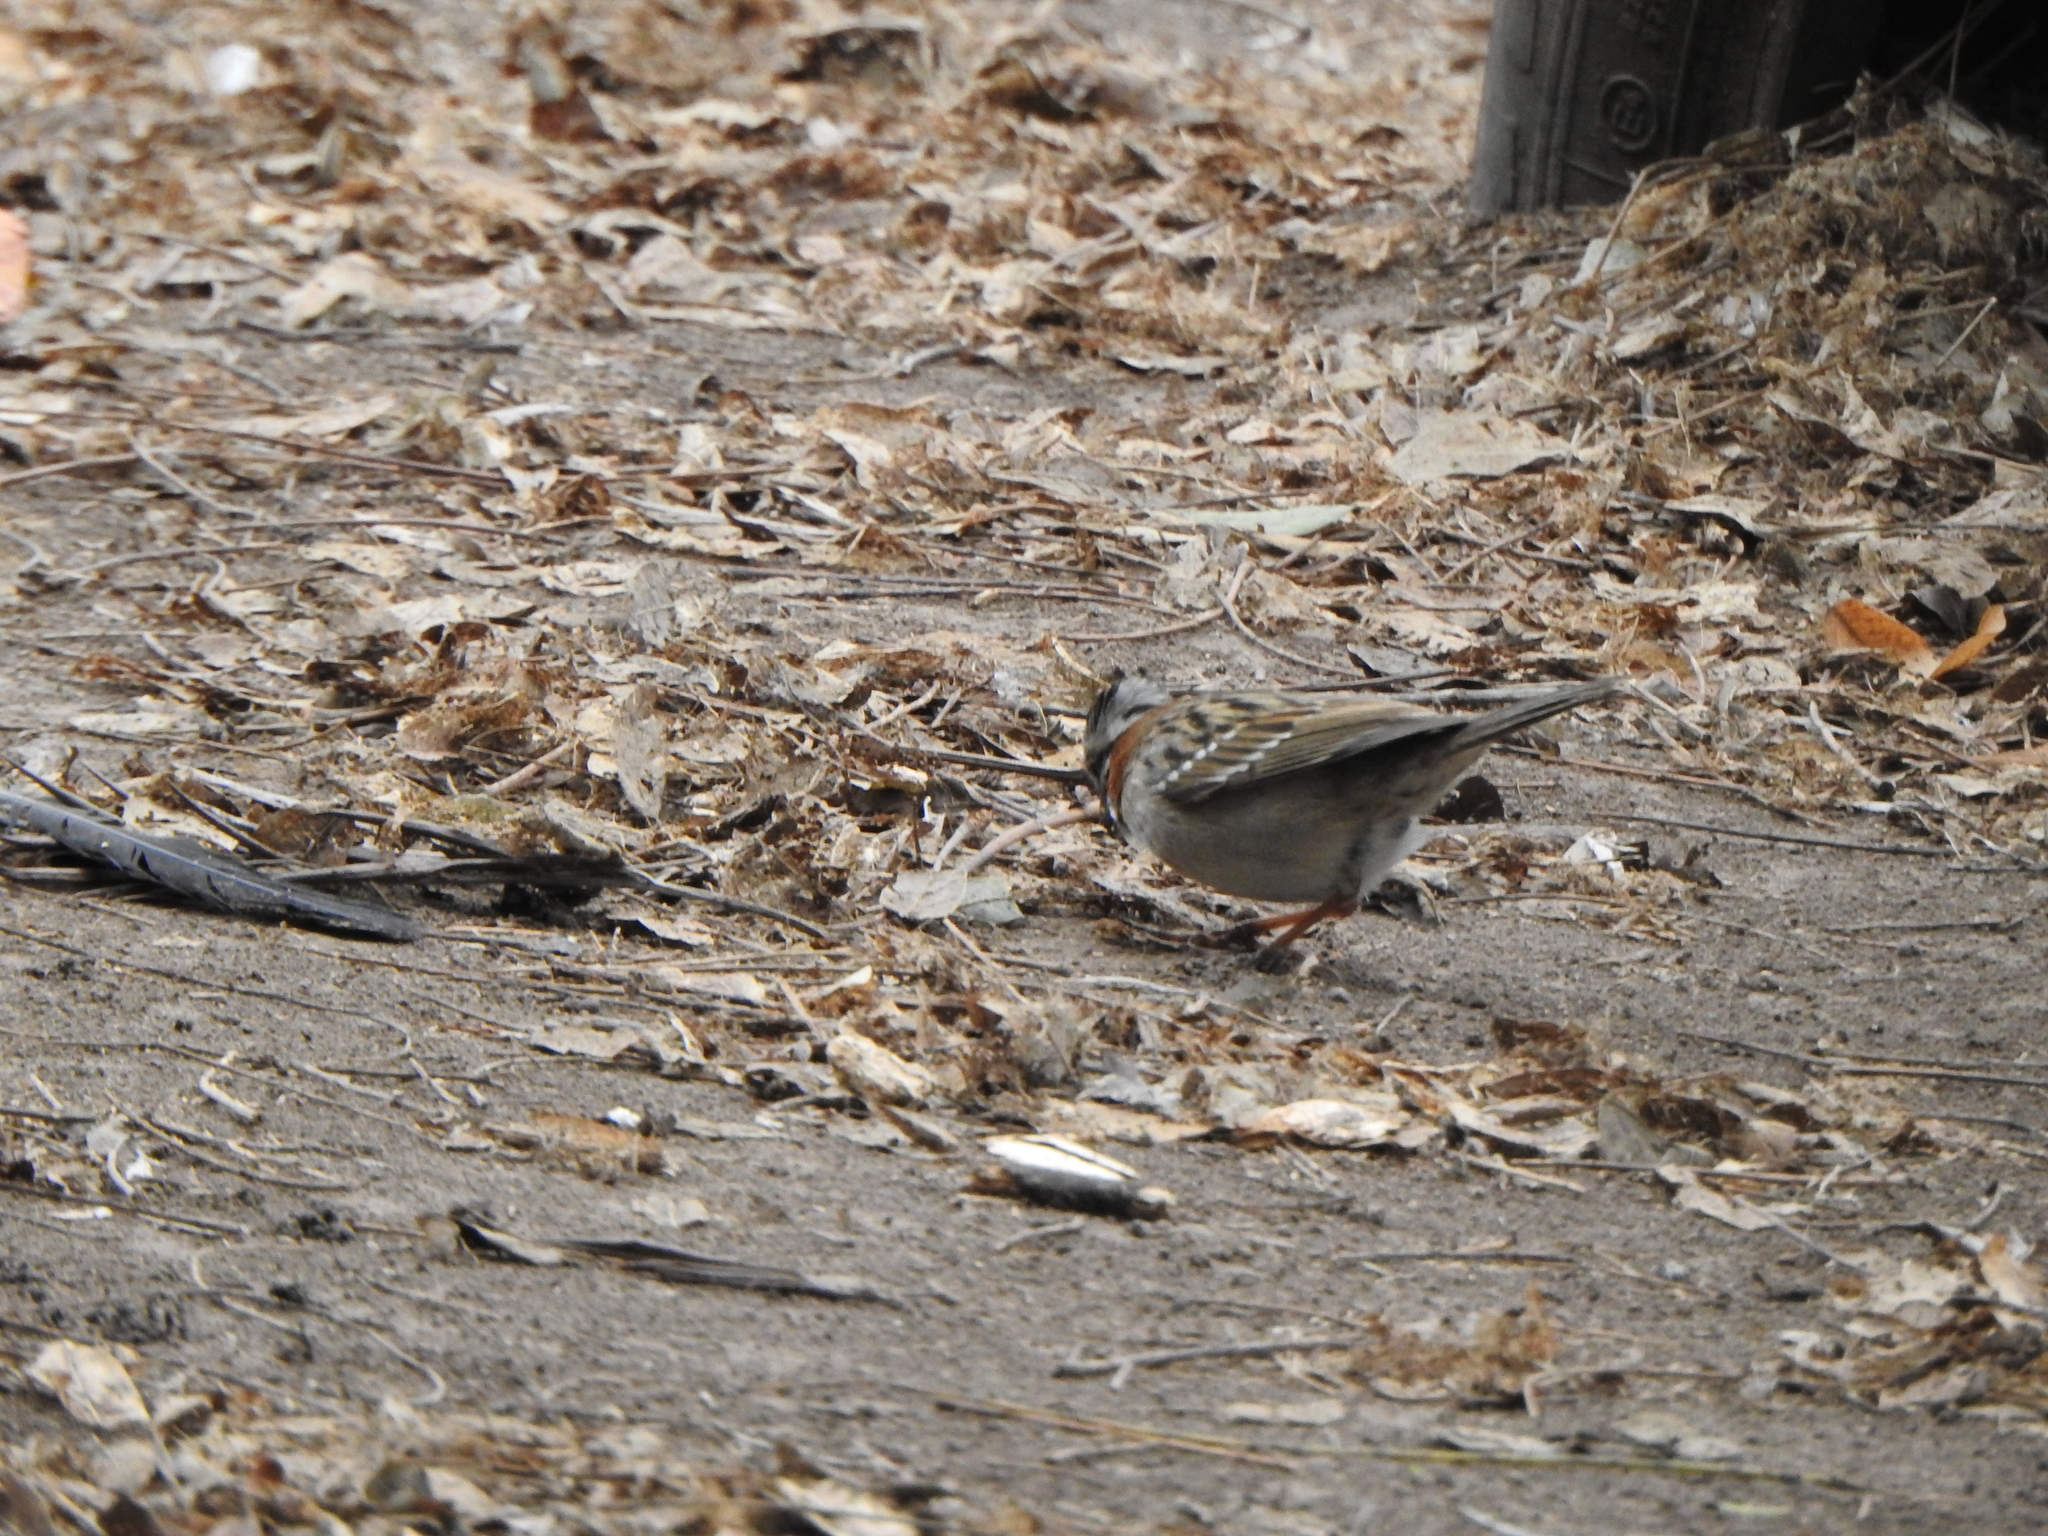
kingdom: Animalia
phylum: Chordata
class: Aves
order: Passeriformes
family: Passerellidae
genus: Zonotrichia
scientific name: Zonotrichia capensis
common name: Rufous-collared sparrow
